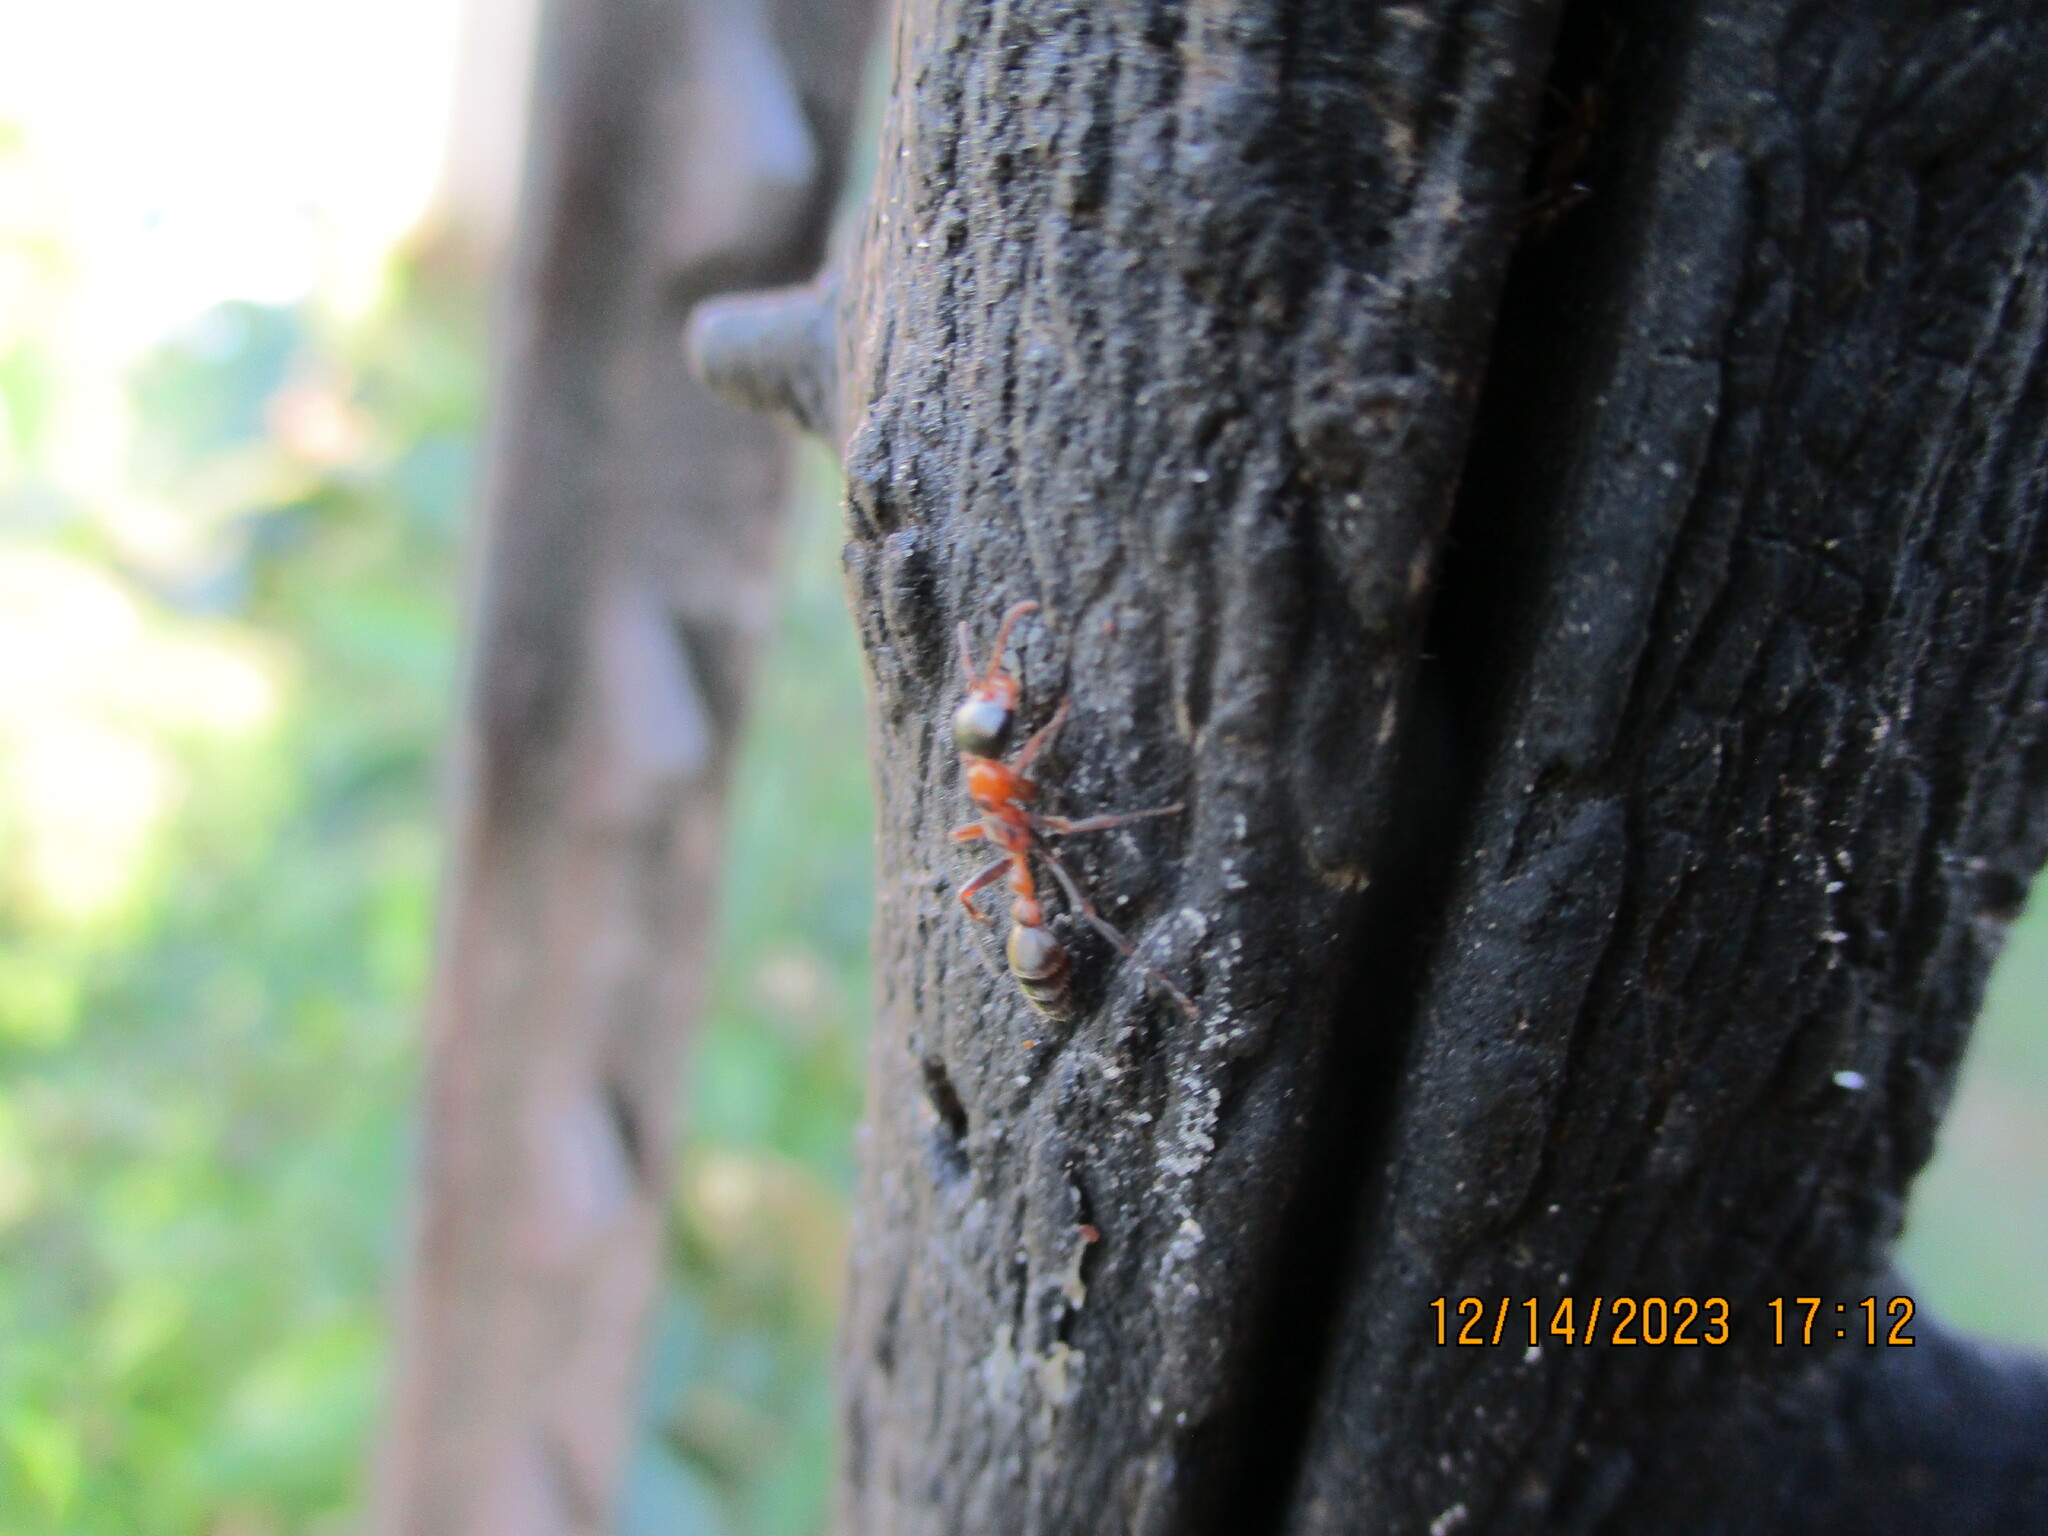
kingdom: Animalia
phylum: Arthropoda
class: Insecta
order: Hymenoptera
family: Formicidae
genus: Pseudomyrmex
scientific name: Pseudomyrmex gracilis
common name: Graceful twig ant
